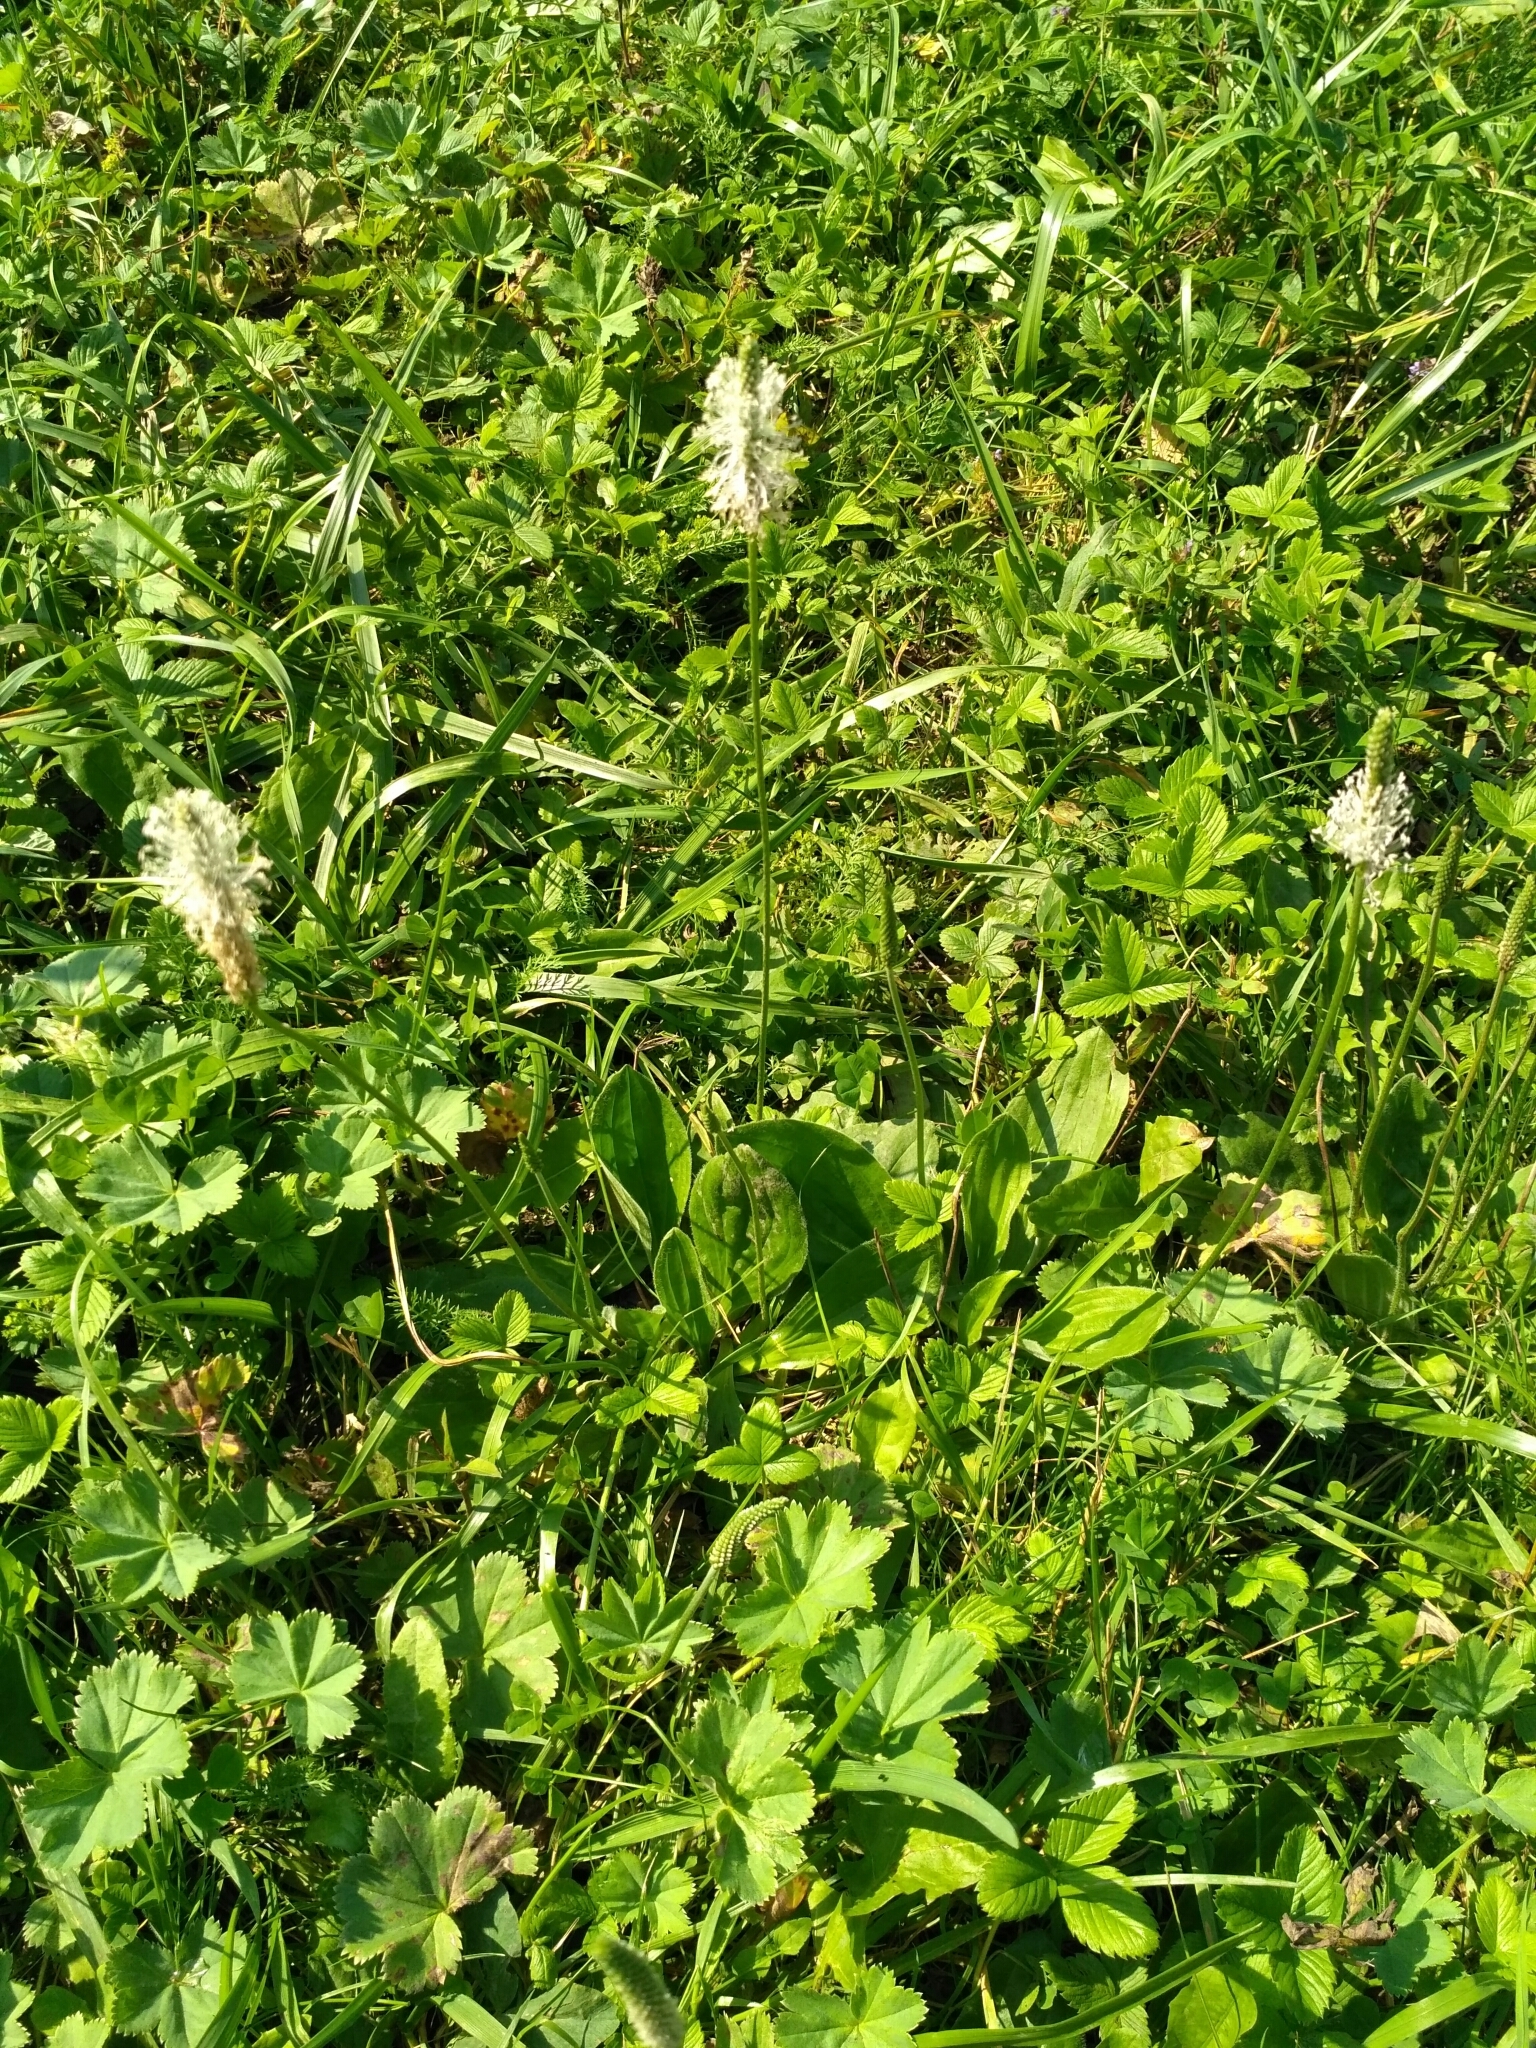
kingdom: Plantae
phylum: Tracheophyta
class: Magnoliopsida
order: Lamiales
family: Plantaginaceae
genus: Plantago
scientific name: Plantago media
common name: Hoary plantain
